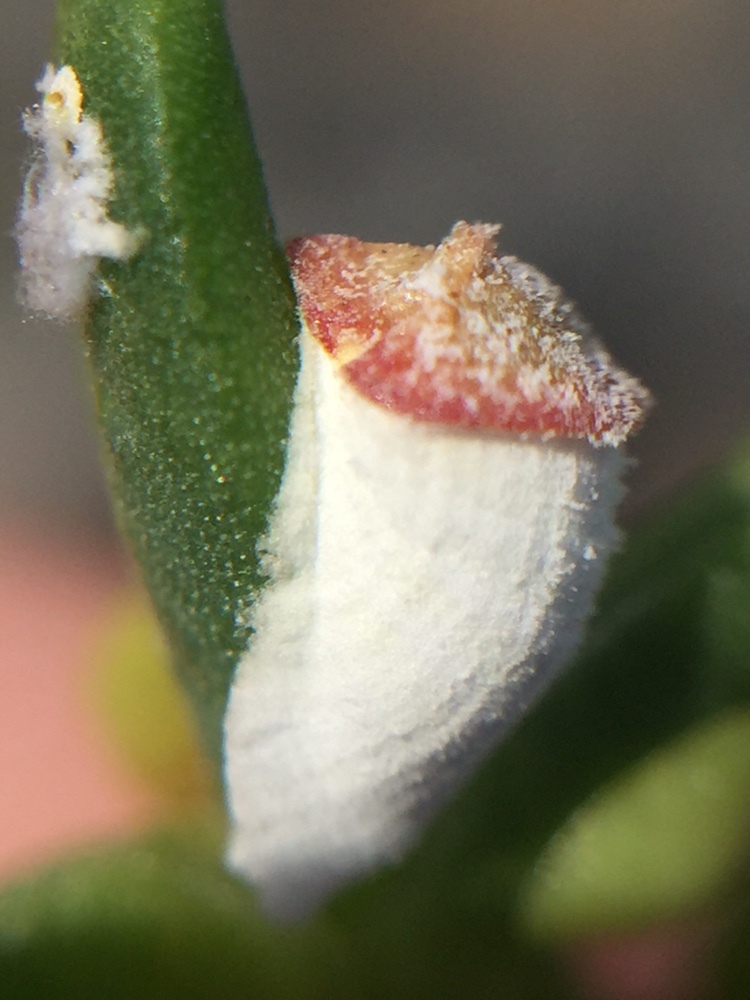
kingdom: Animalia
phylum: Arthropoda
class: Insecta
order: Hemiptera
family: Coccidae
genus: Pulvinariella
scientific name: Pulvinariella mesembryanthemi
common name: Cottony pigface scale
